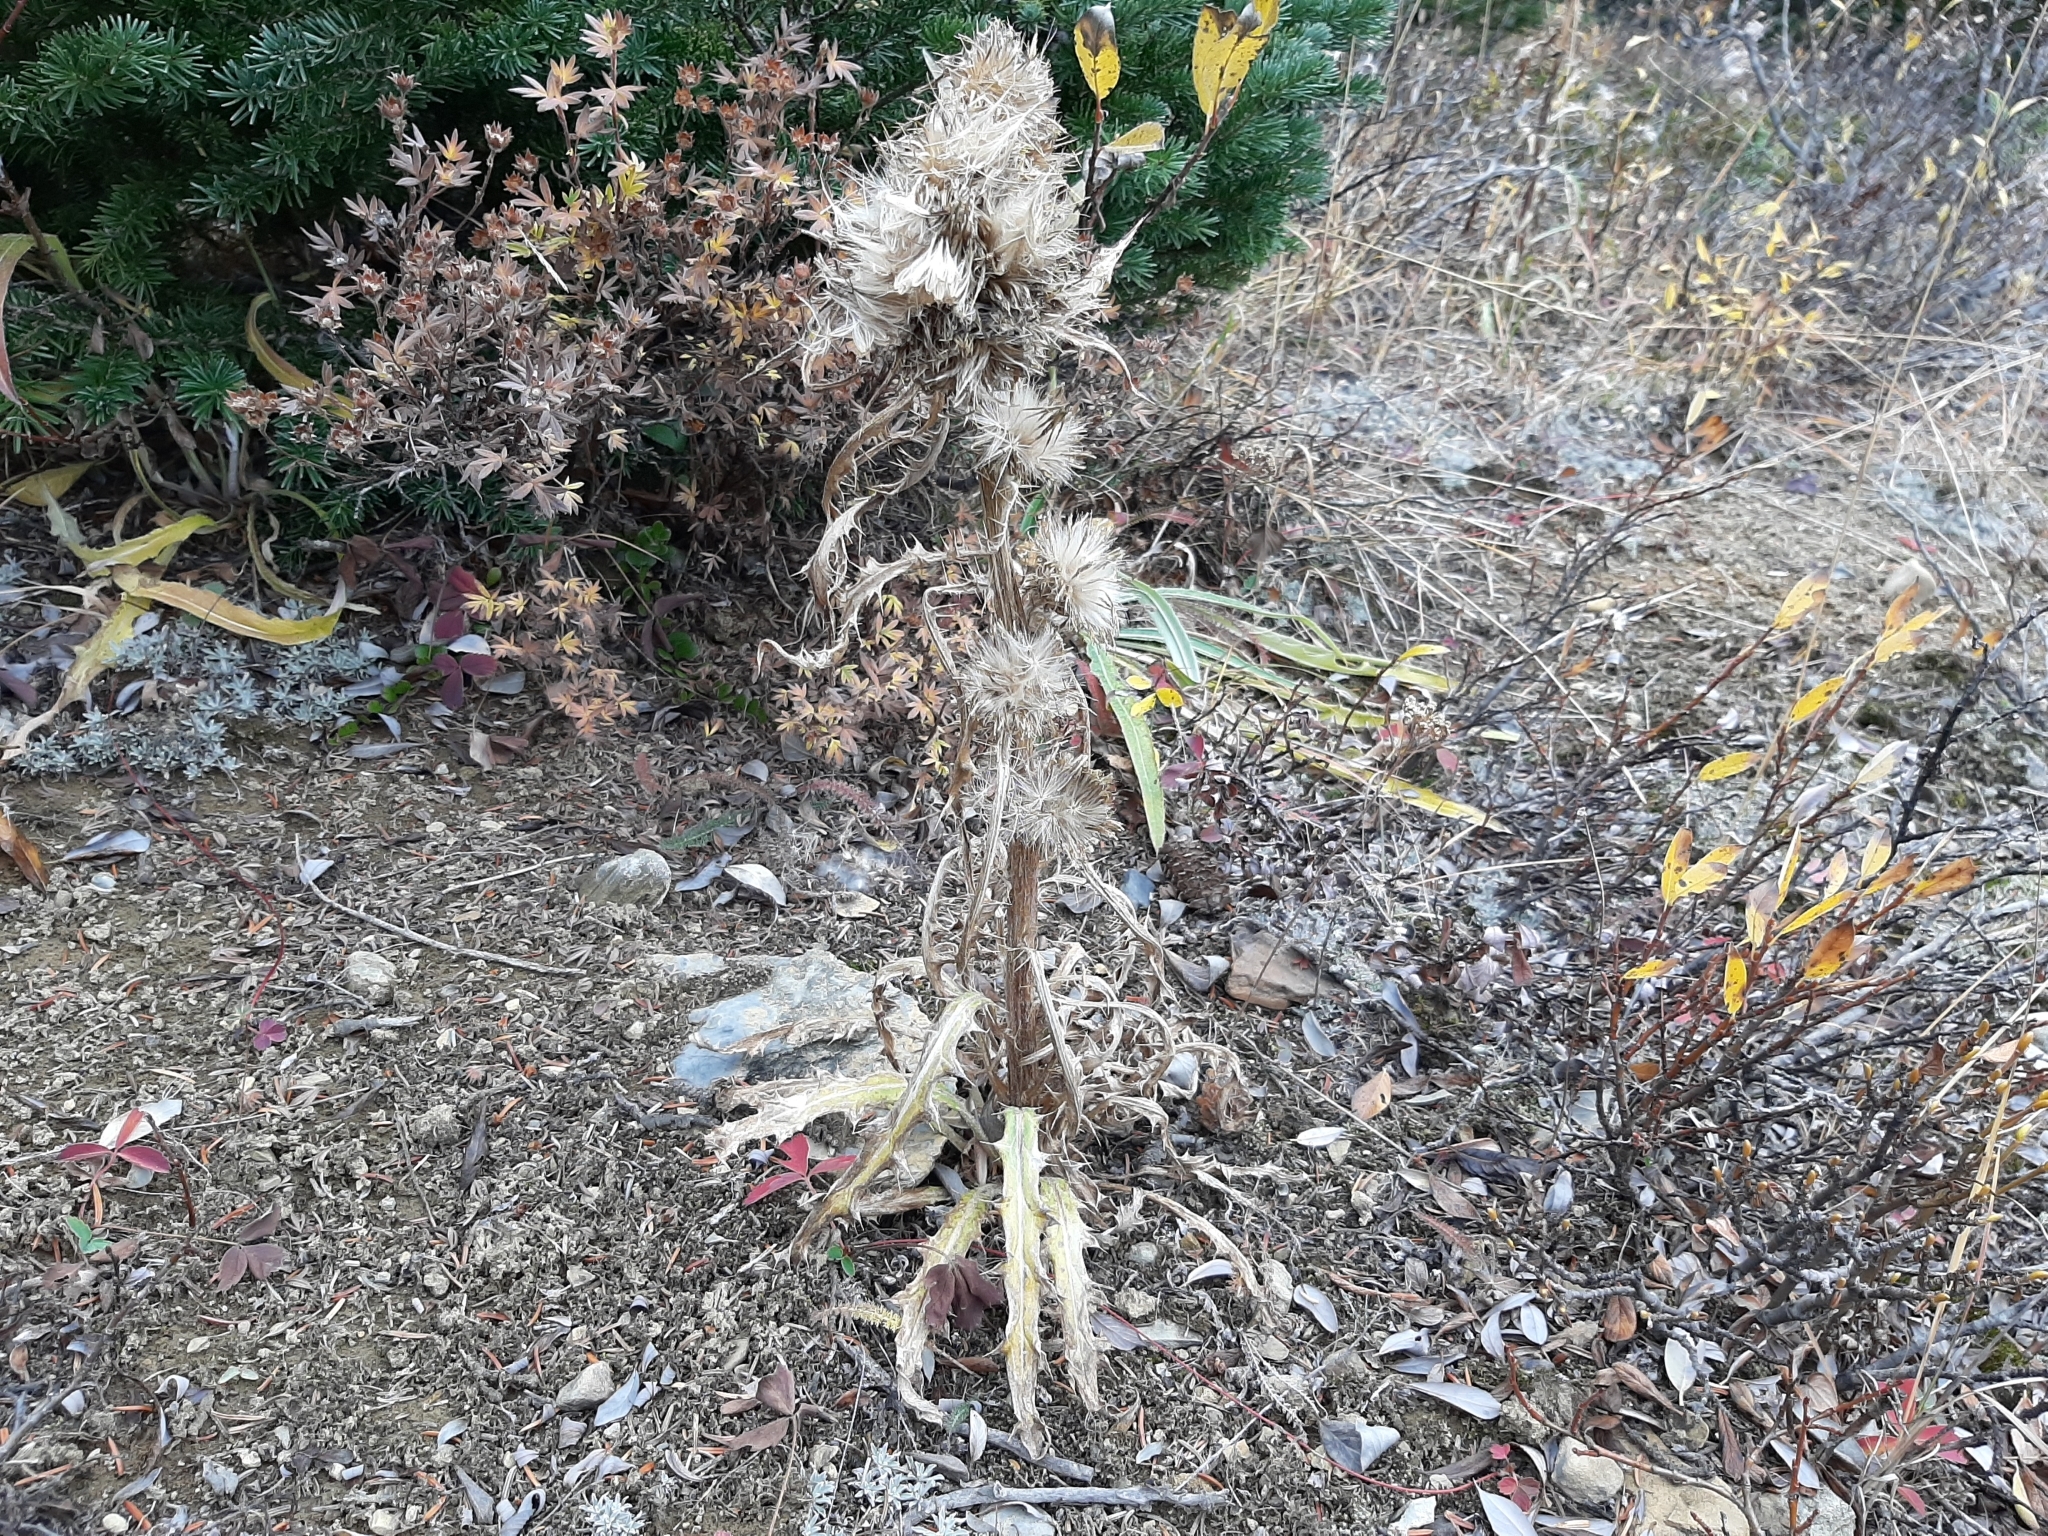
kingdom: Plantae
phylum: Tracheophyta
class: Magnoliopsida
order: Asterales
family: Asteraceae
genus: Cirsium
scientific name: Cirsium hookerianum
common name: Hooker's thistle
